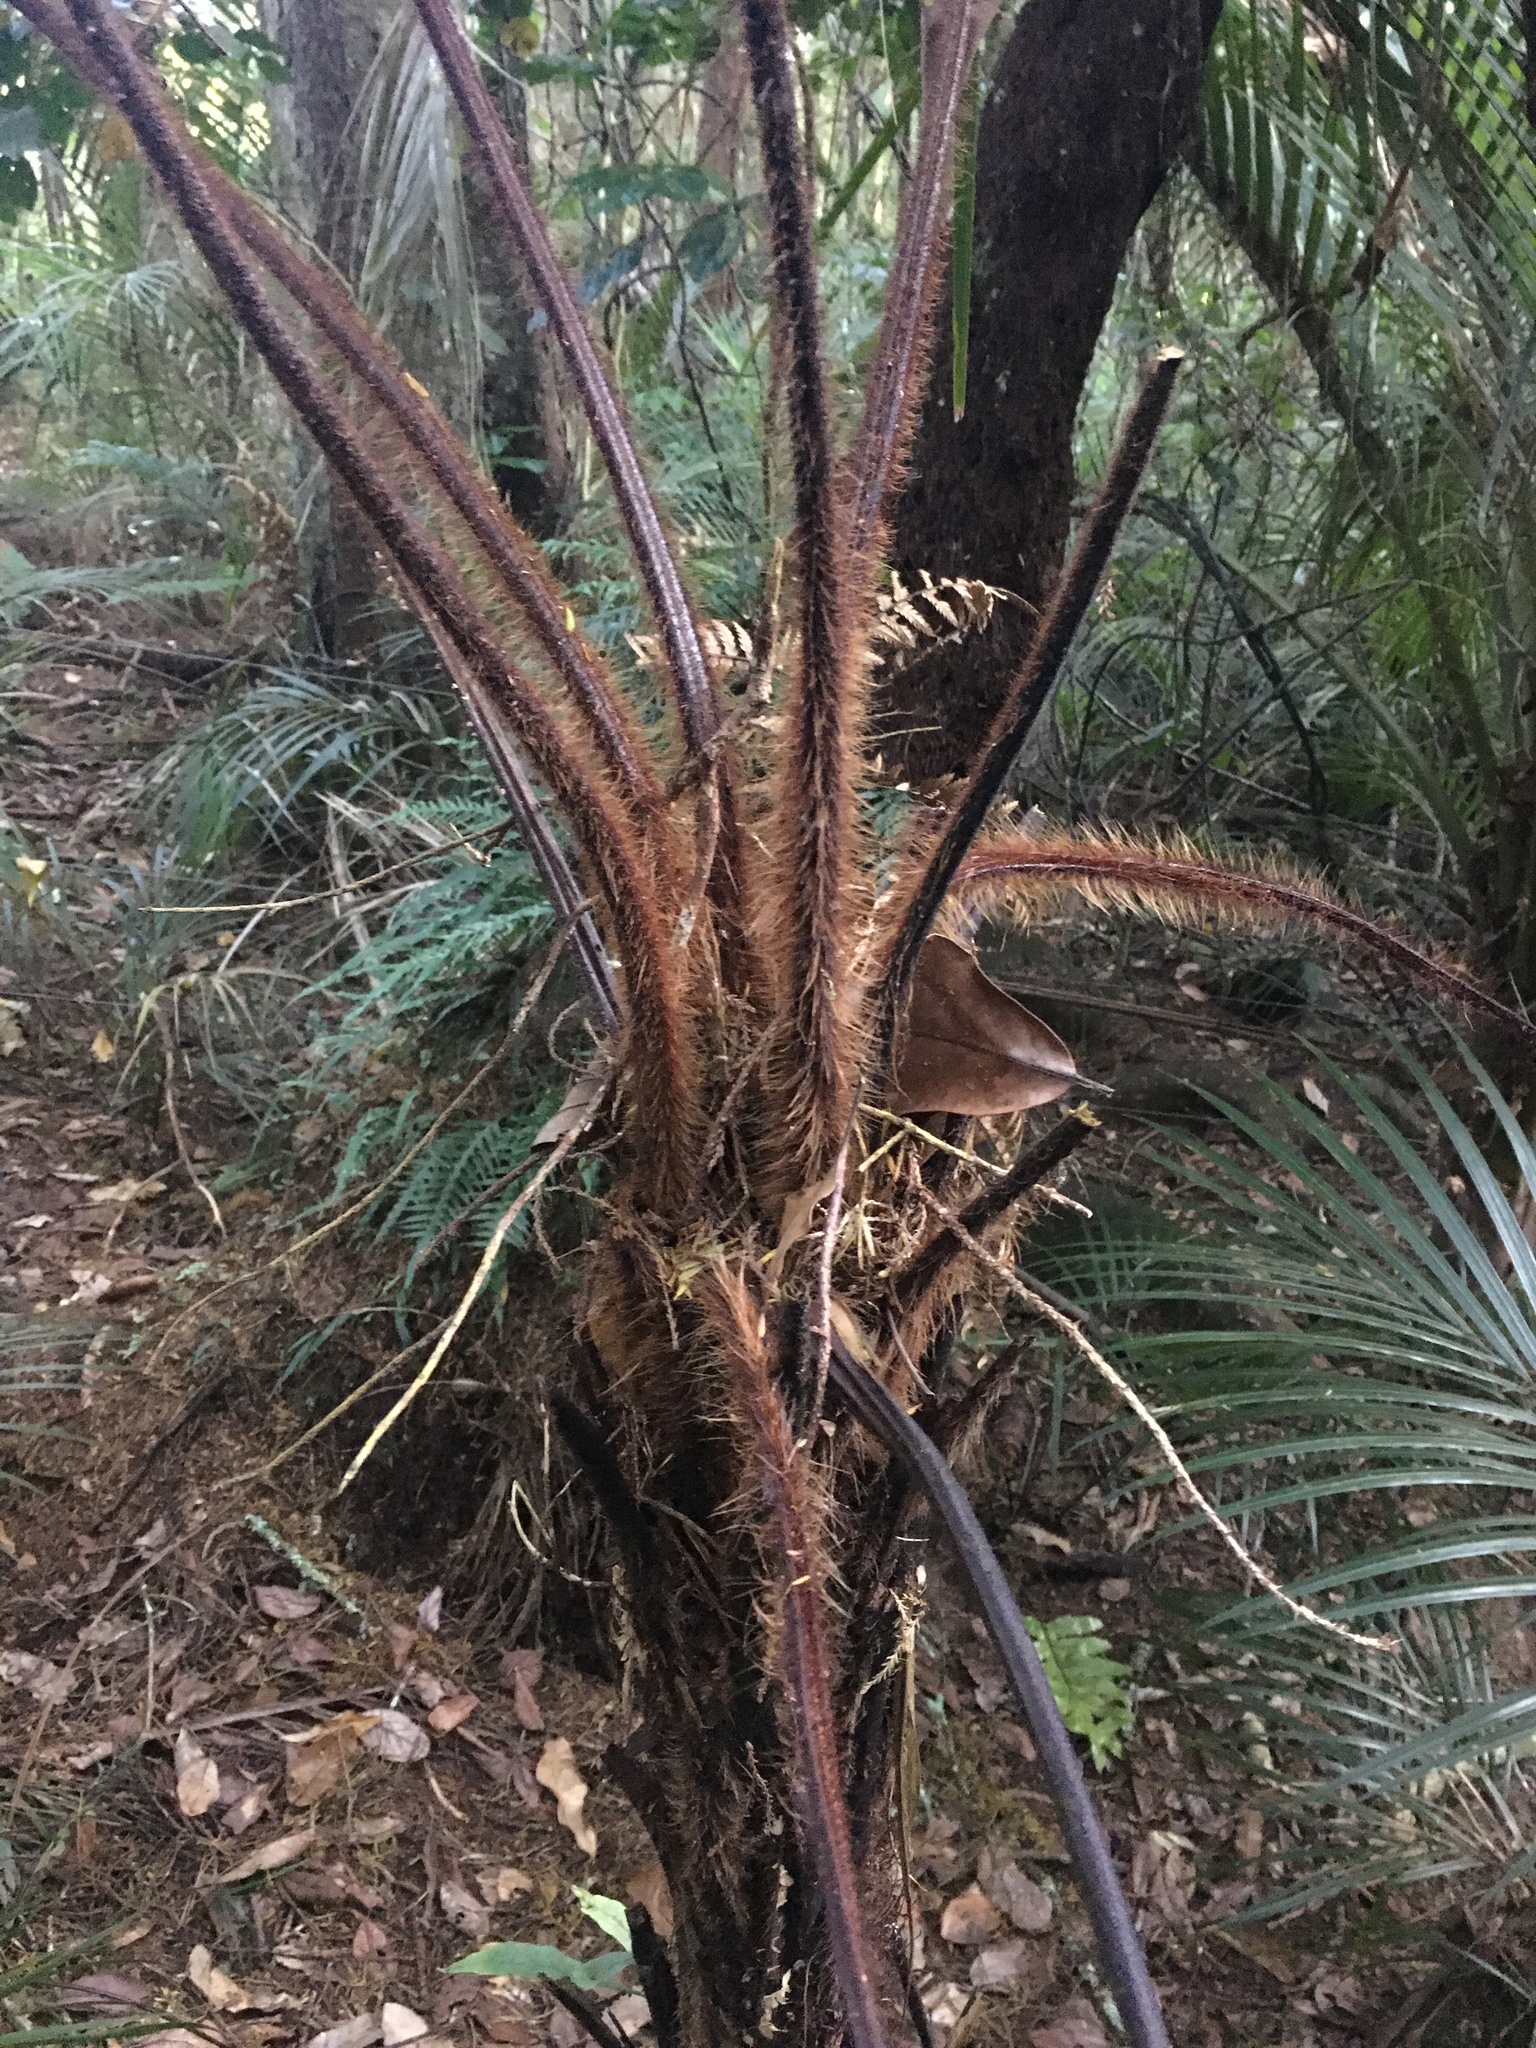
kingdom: Plantae
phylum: Tracheophyta
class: Polypodiopsida
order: Cyatheales
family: Dicksoniaceae
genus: Dicksonia
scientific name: Dicksonia squarrosa
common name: Hard treefern
